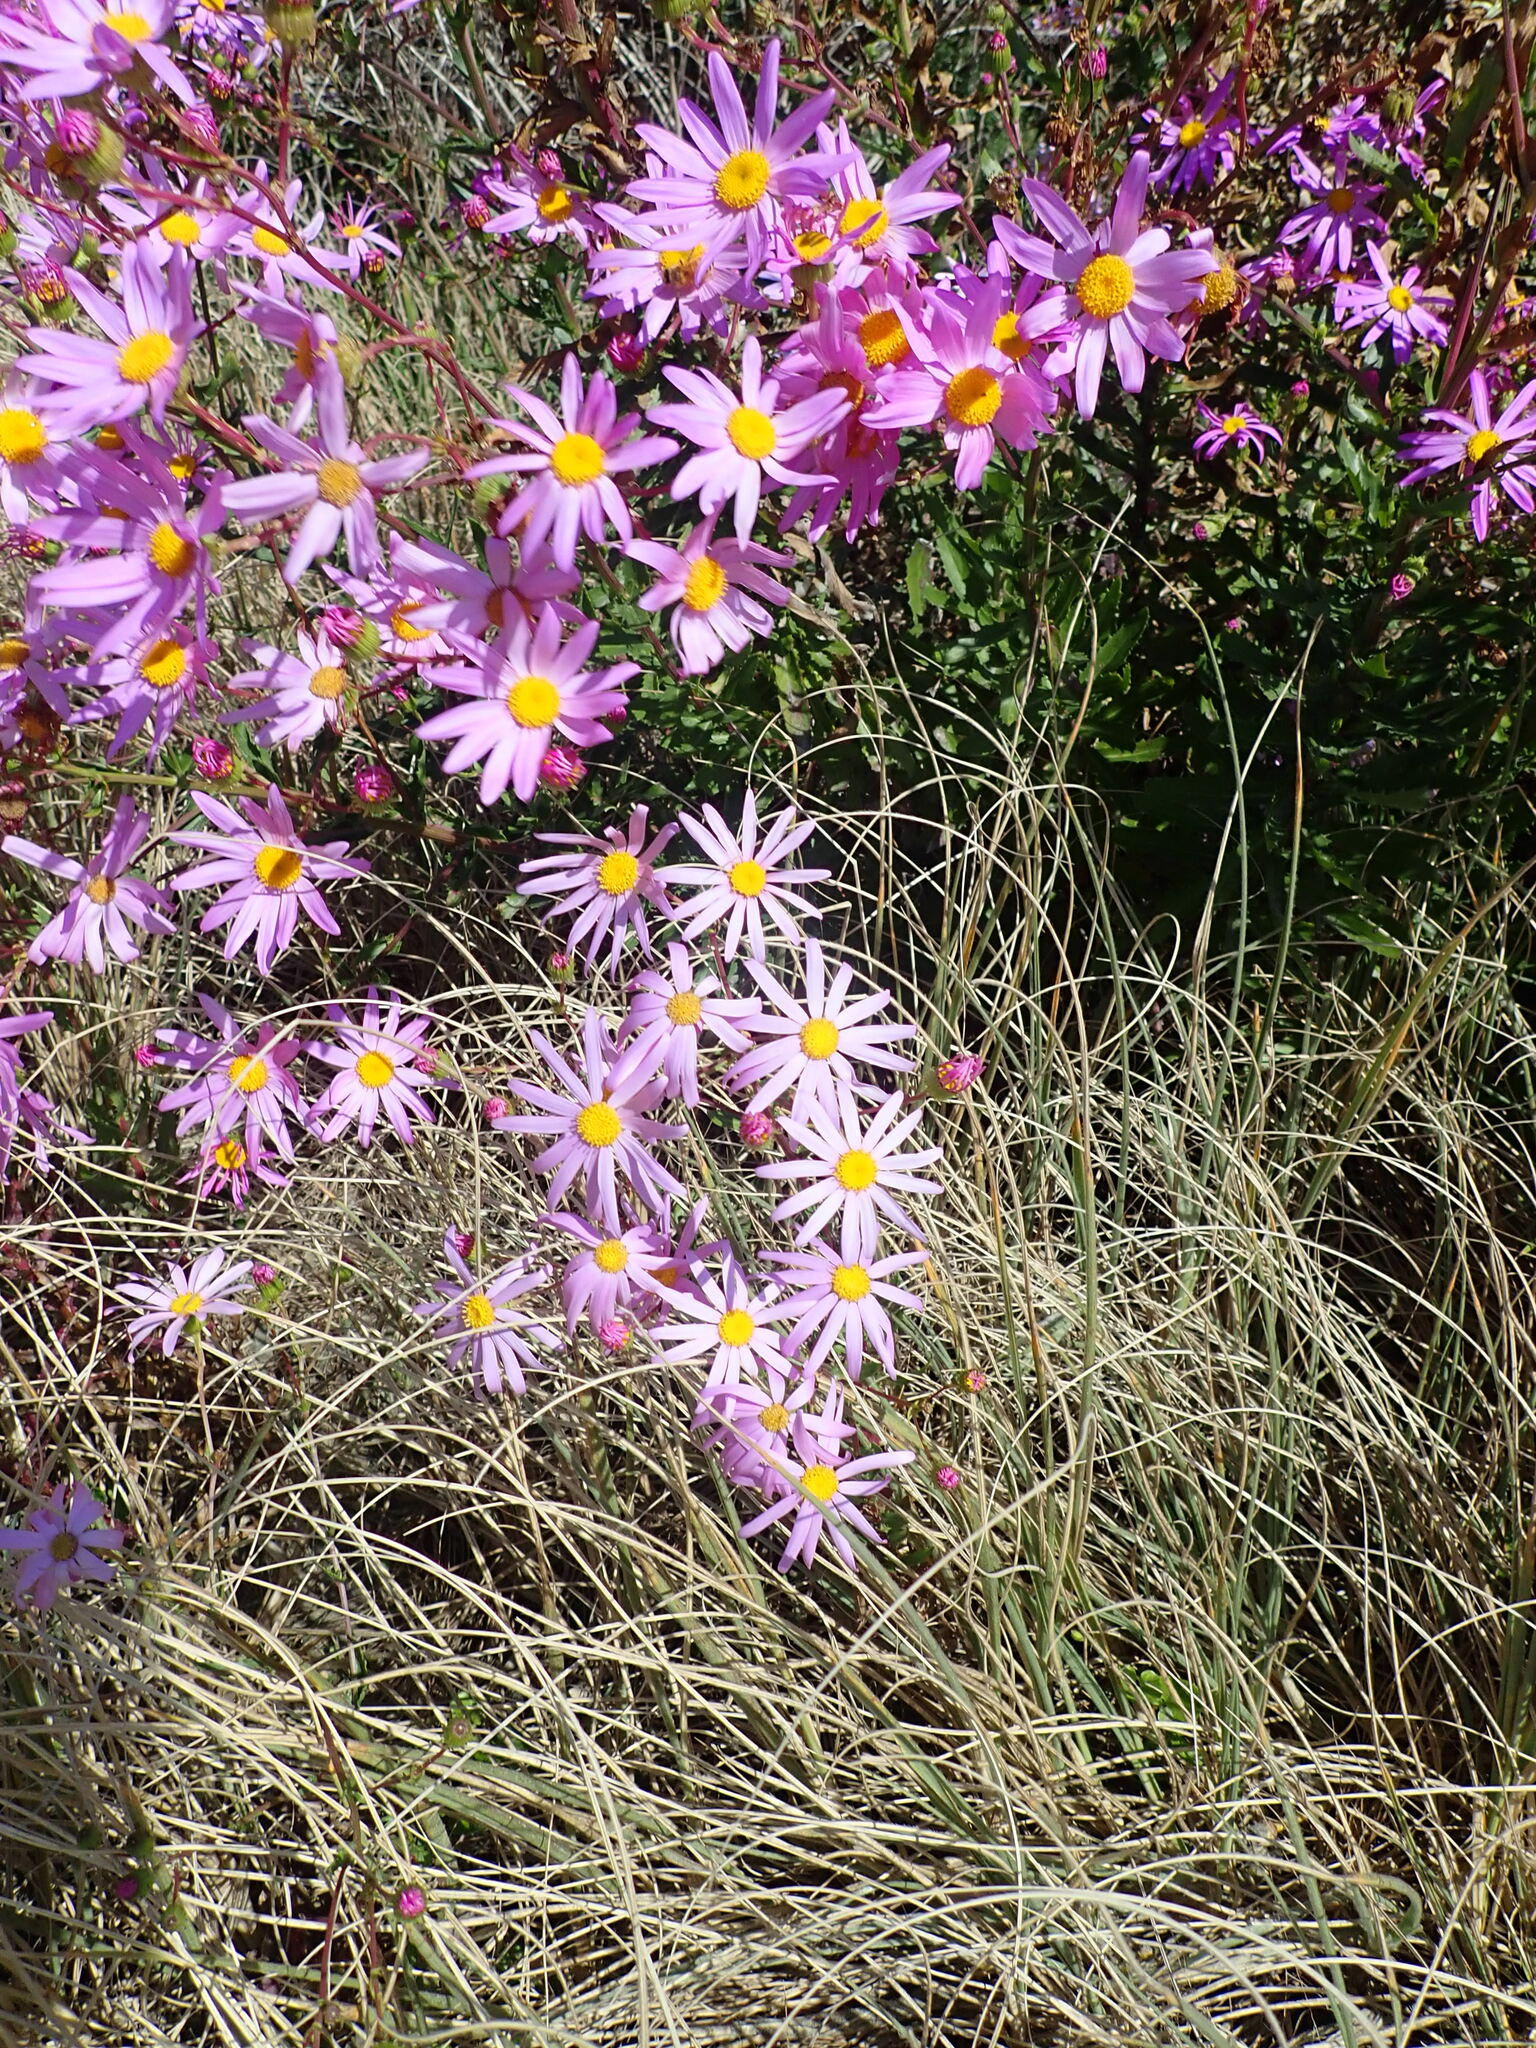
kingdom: Plantae
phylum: Tracheophyta
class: Magnoliopsida
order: Asterales
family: Asteraceae
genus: Senecio
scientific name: Senecio glastifolius
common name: Woad-leaved ragwort
